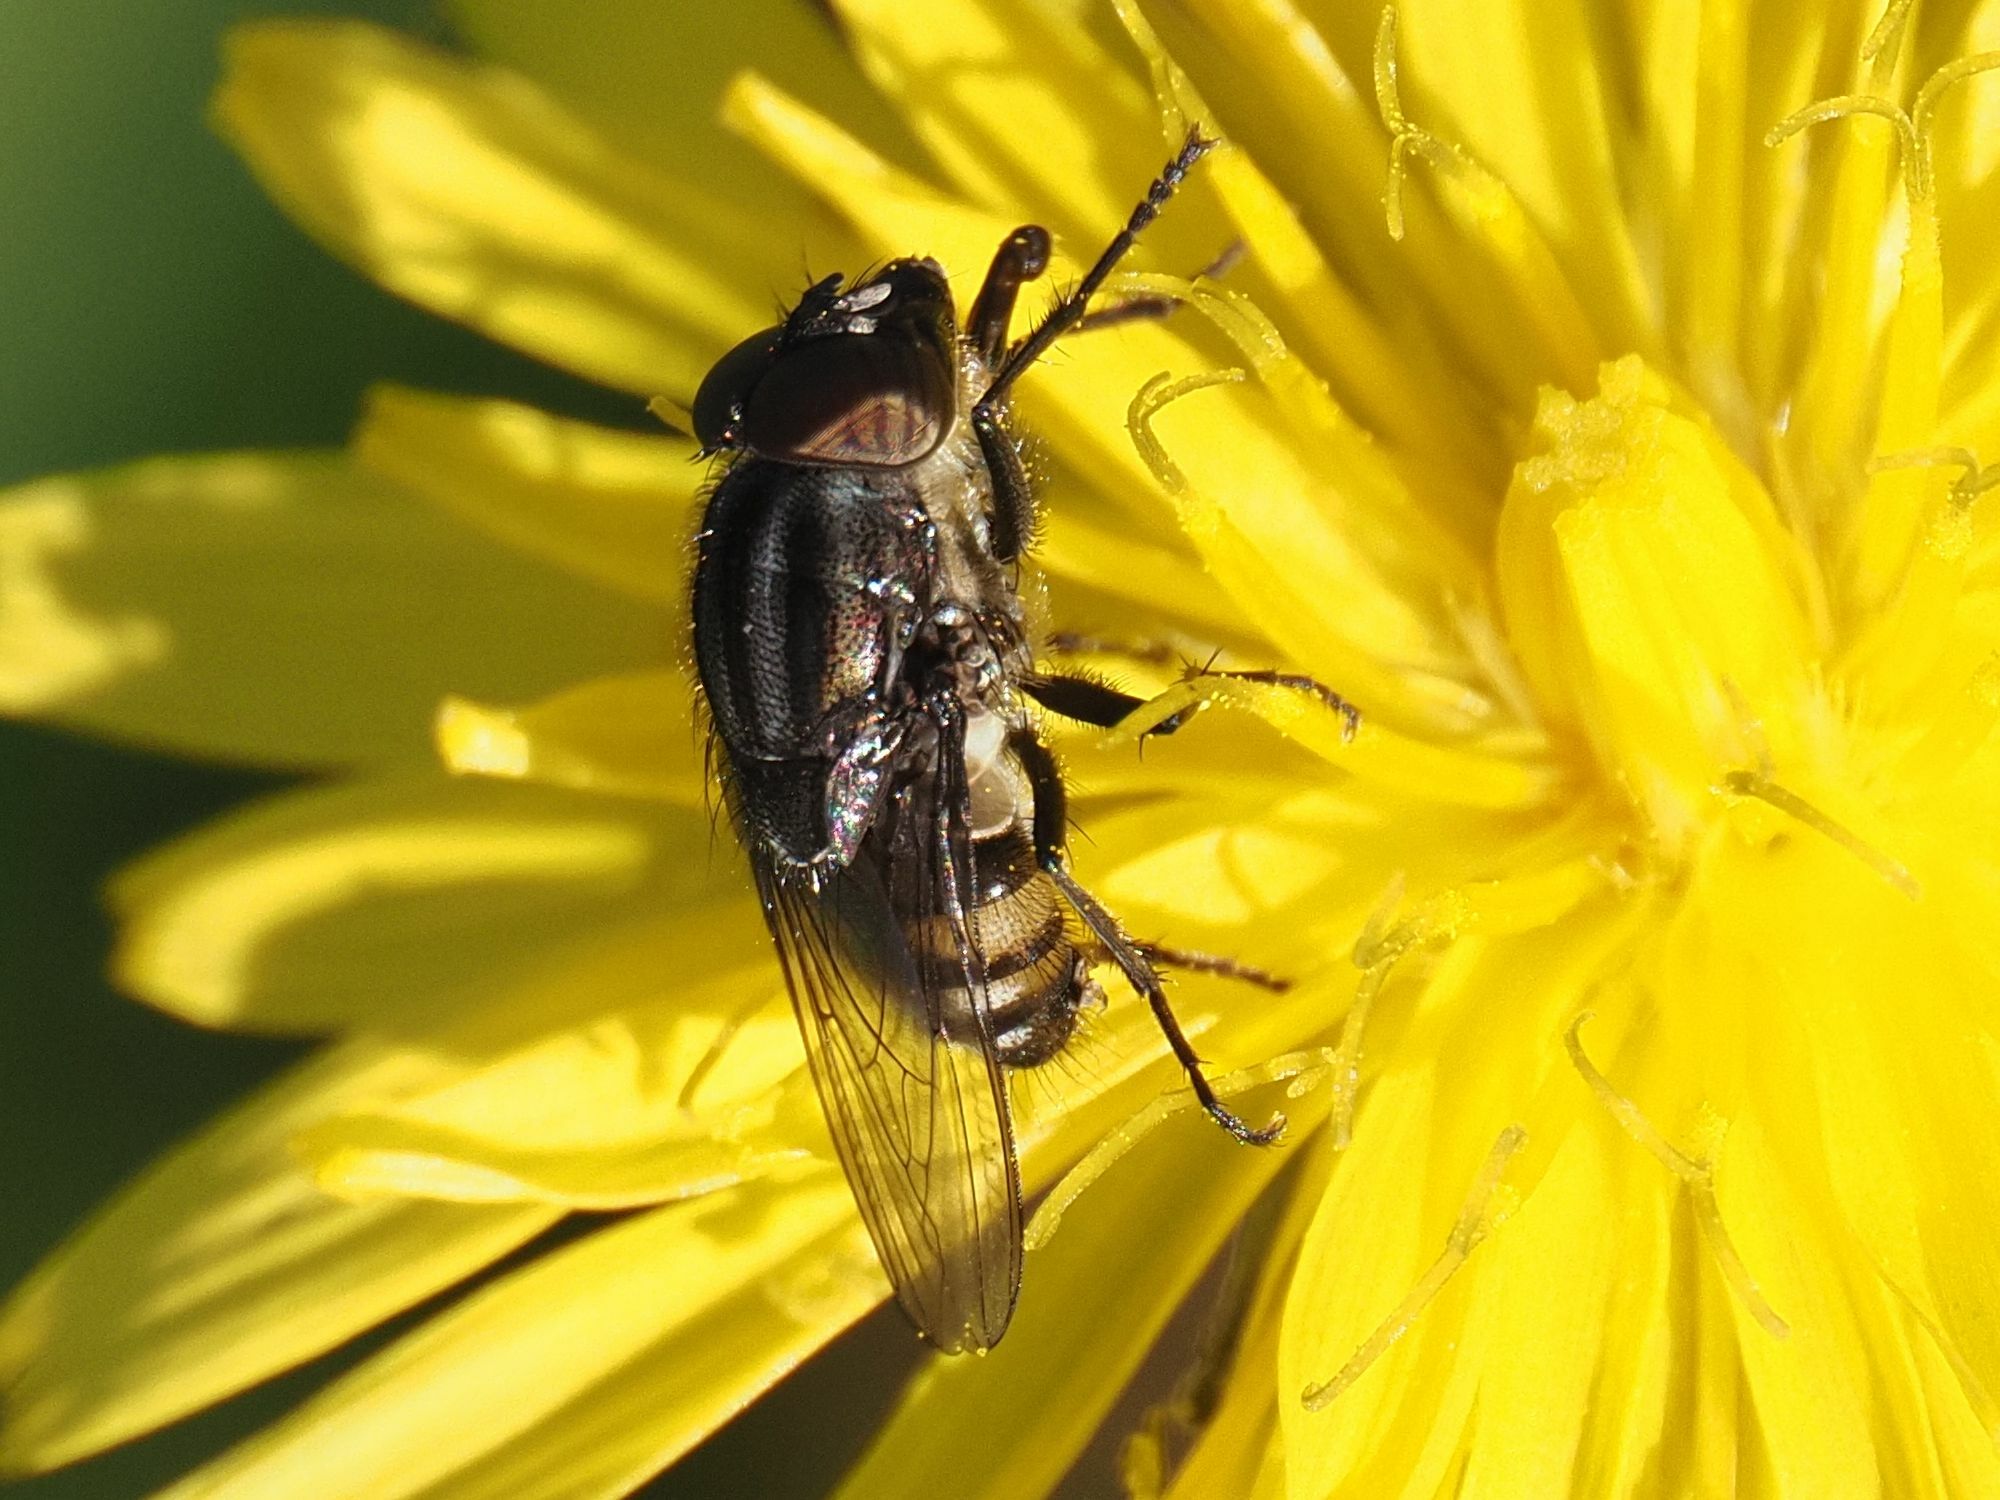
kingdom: Animalia
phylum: Arthropoda
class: Insecta
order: Diptera
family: Calliphoridae
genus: Stomorhina
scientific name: Stomorhina lunata
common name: Locust blowfly
